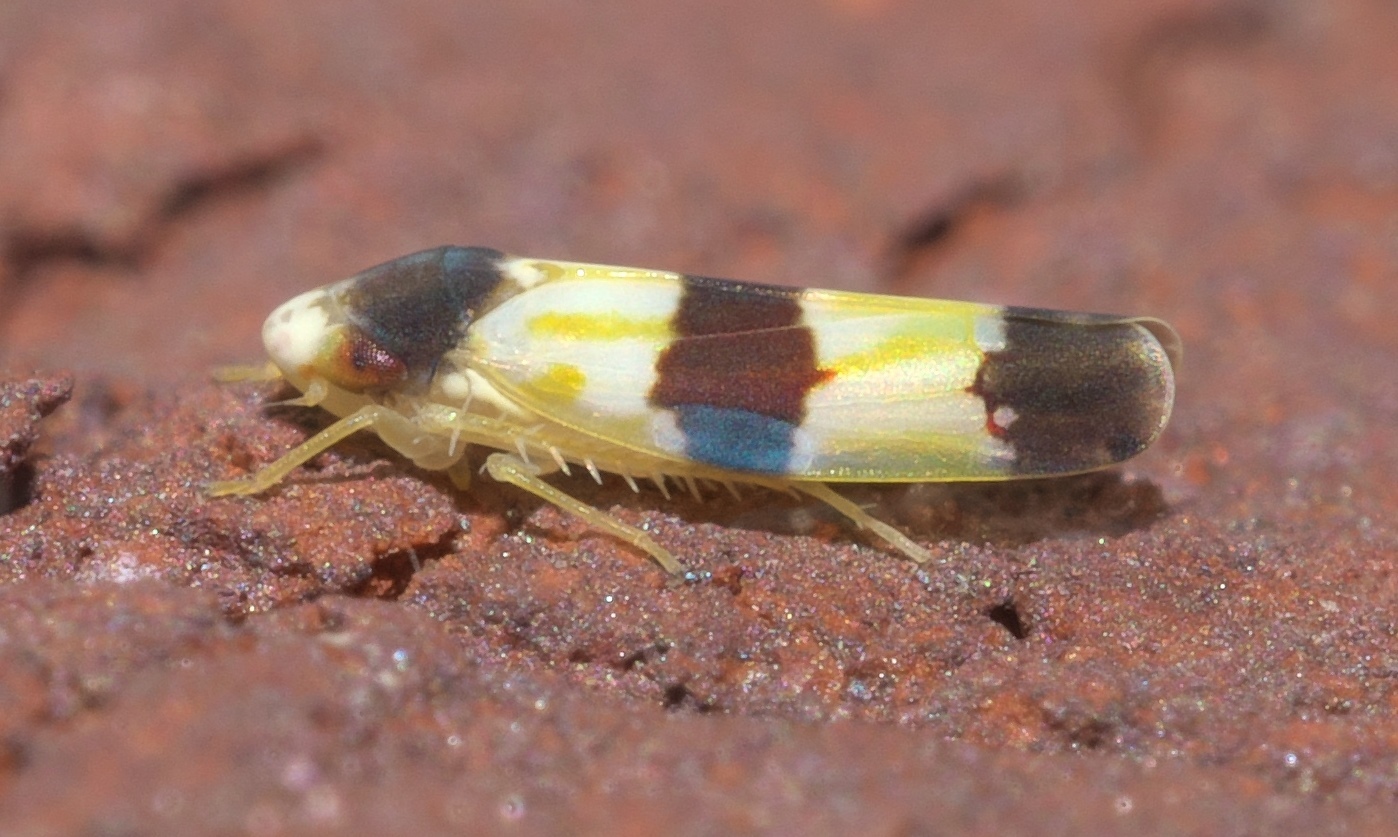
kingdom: Animalia
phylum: Arthropoda
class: Insecta
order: Hemiptera
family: Cicadellidae
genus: Erythroneura
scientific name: Erythroneura tricincta
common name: The threebanded grape leafhopper
